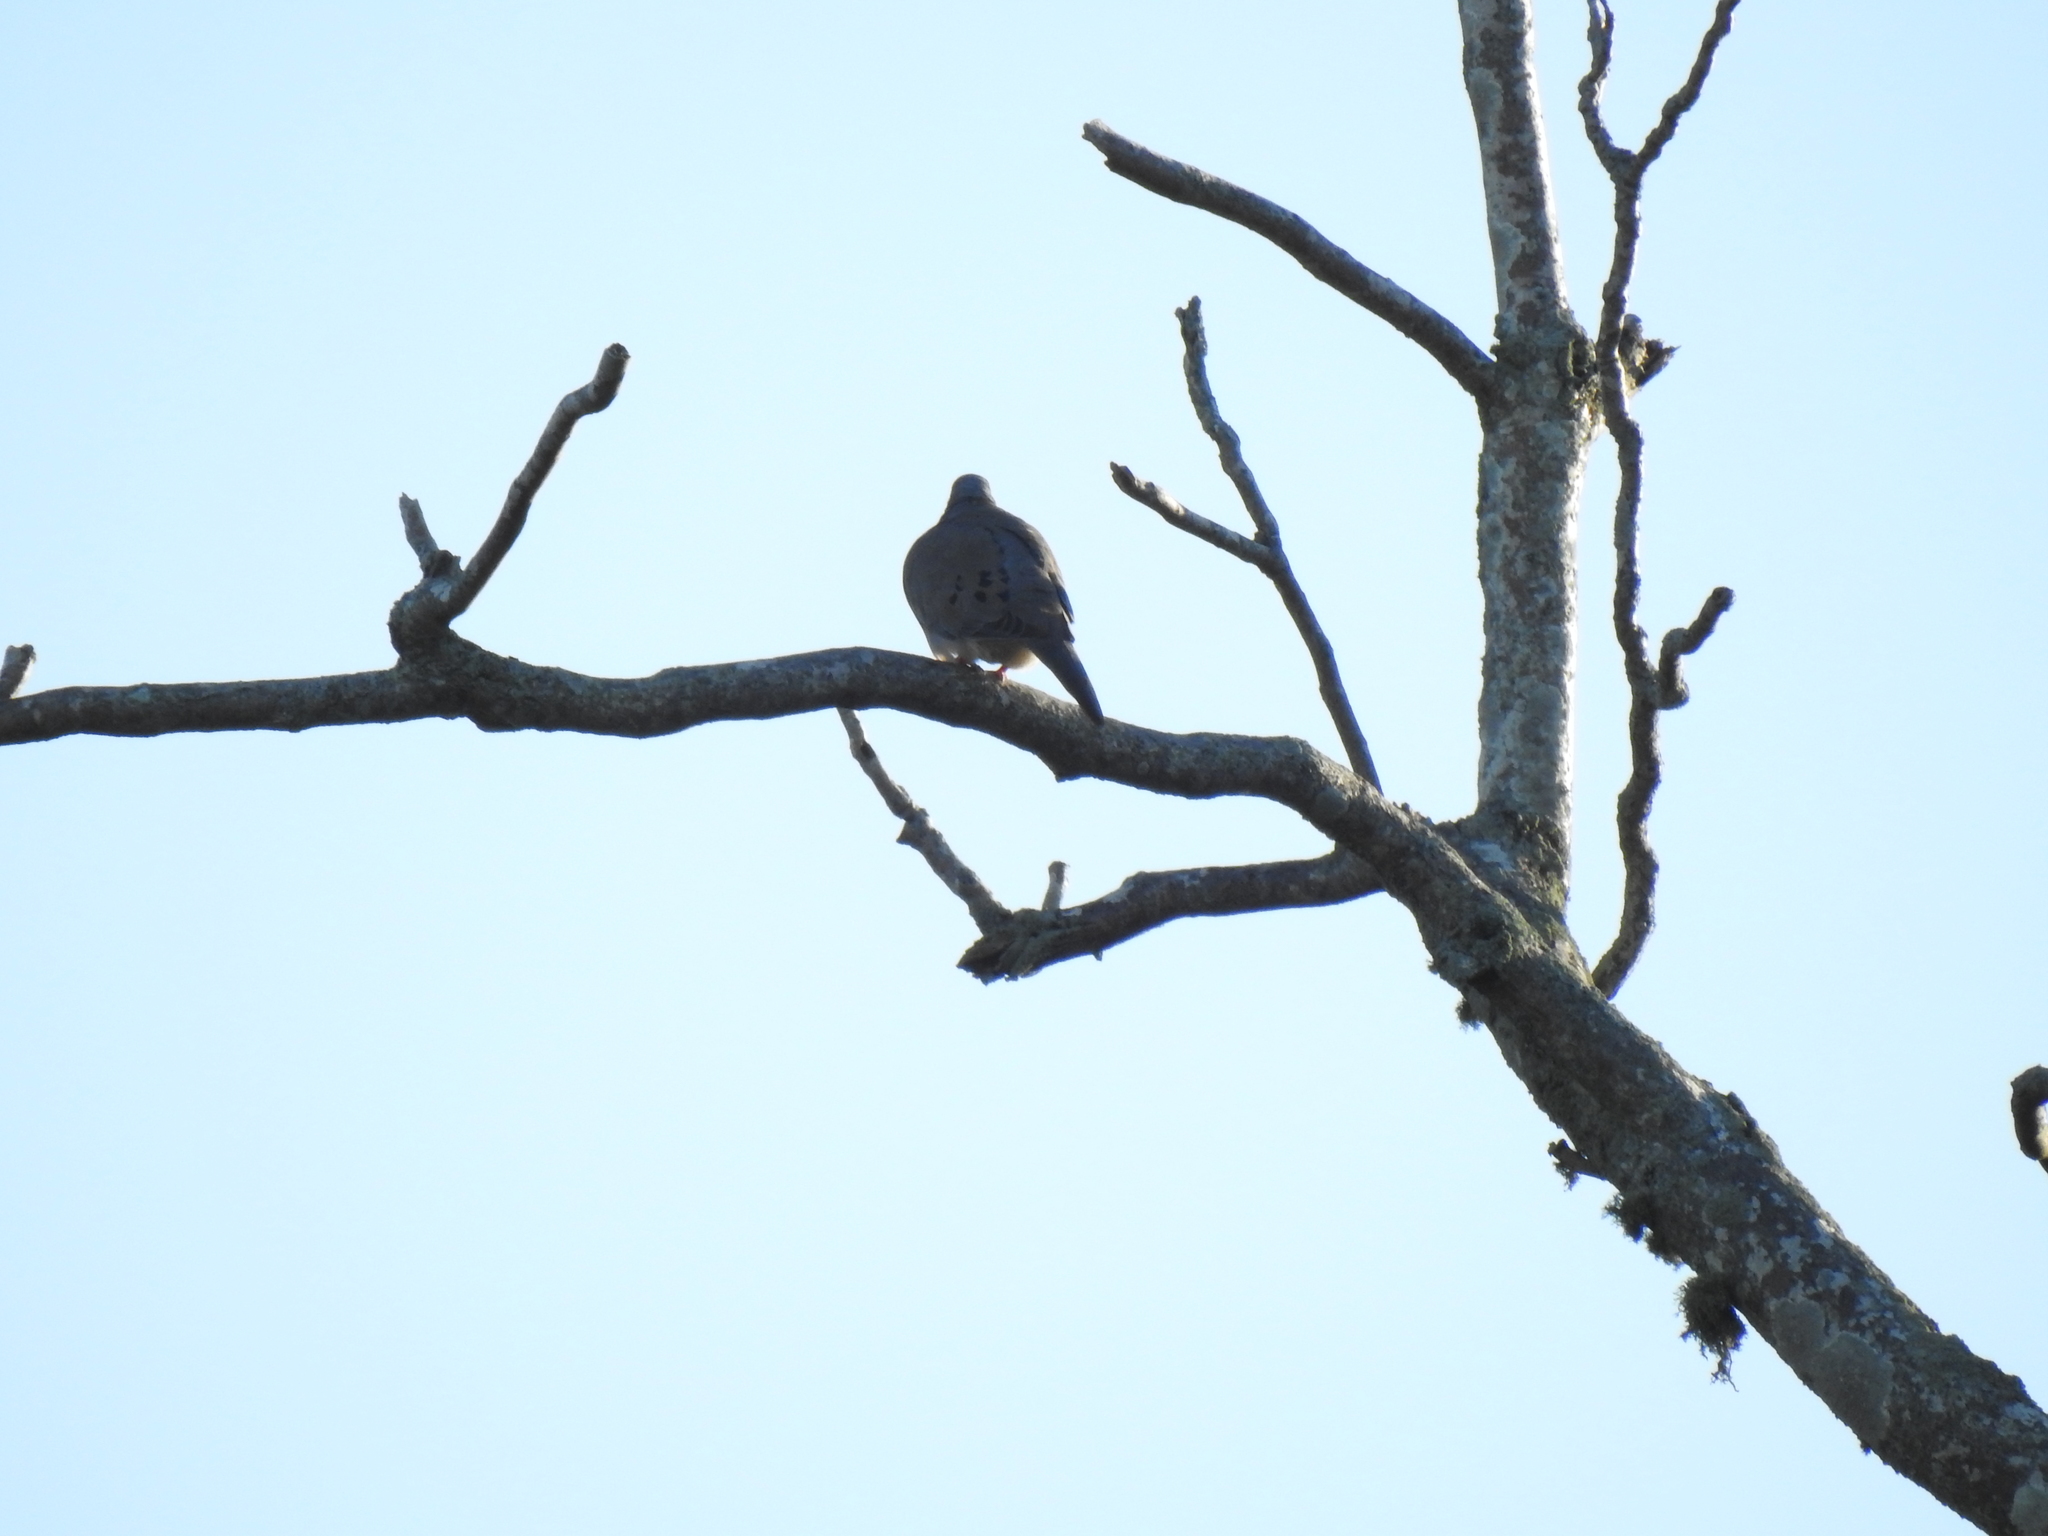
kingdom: Animalia
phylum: Chordata
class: Aves
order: Columbiformes
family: Columbidae
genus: Zenaida
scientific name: Zenaida macroura
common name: Mourning dove
